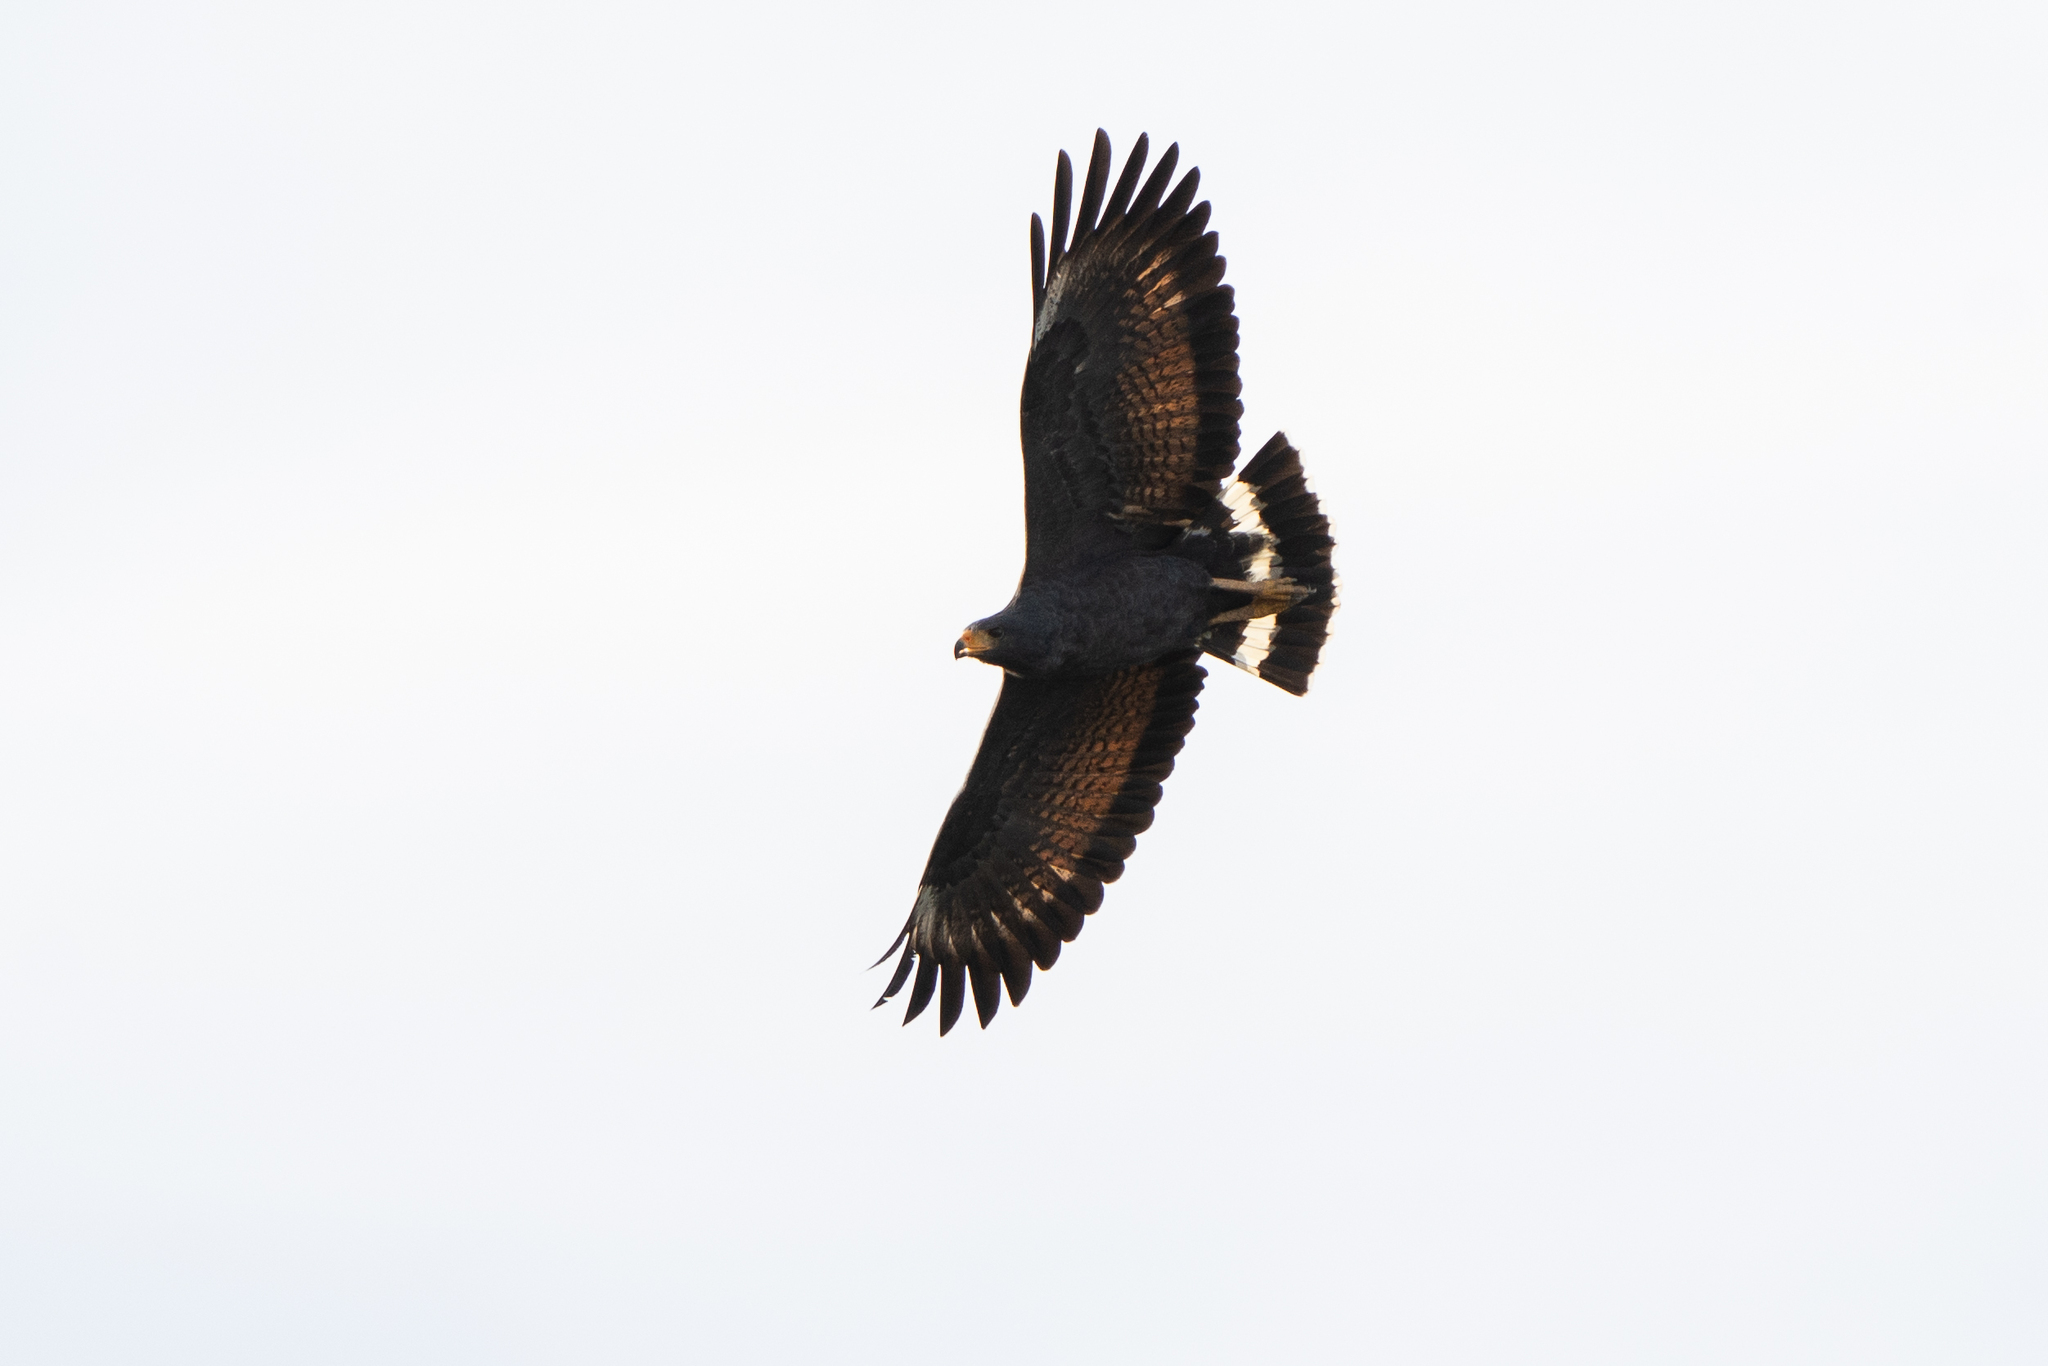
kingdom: Animalia
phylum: Chordata
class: Aves
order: Accipitriformes
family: Accipitridae
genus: Buteogallus
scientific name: Buteogallus anthracinus
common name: Common black hawk
